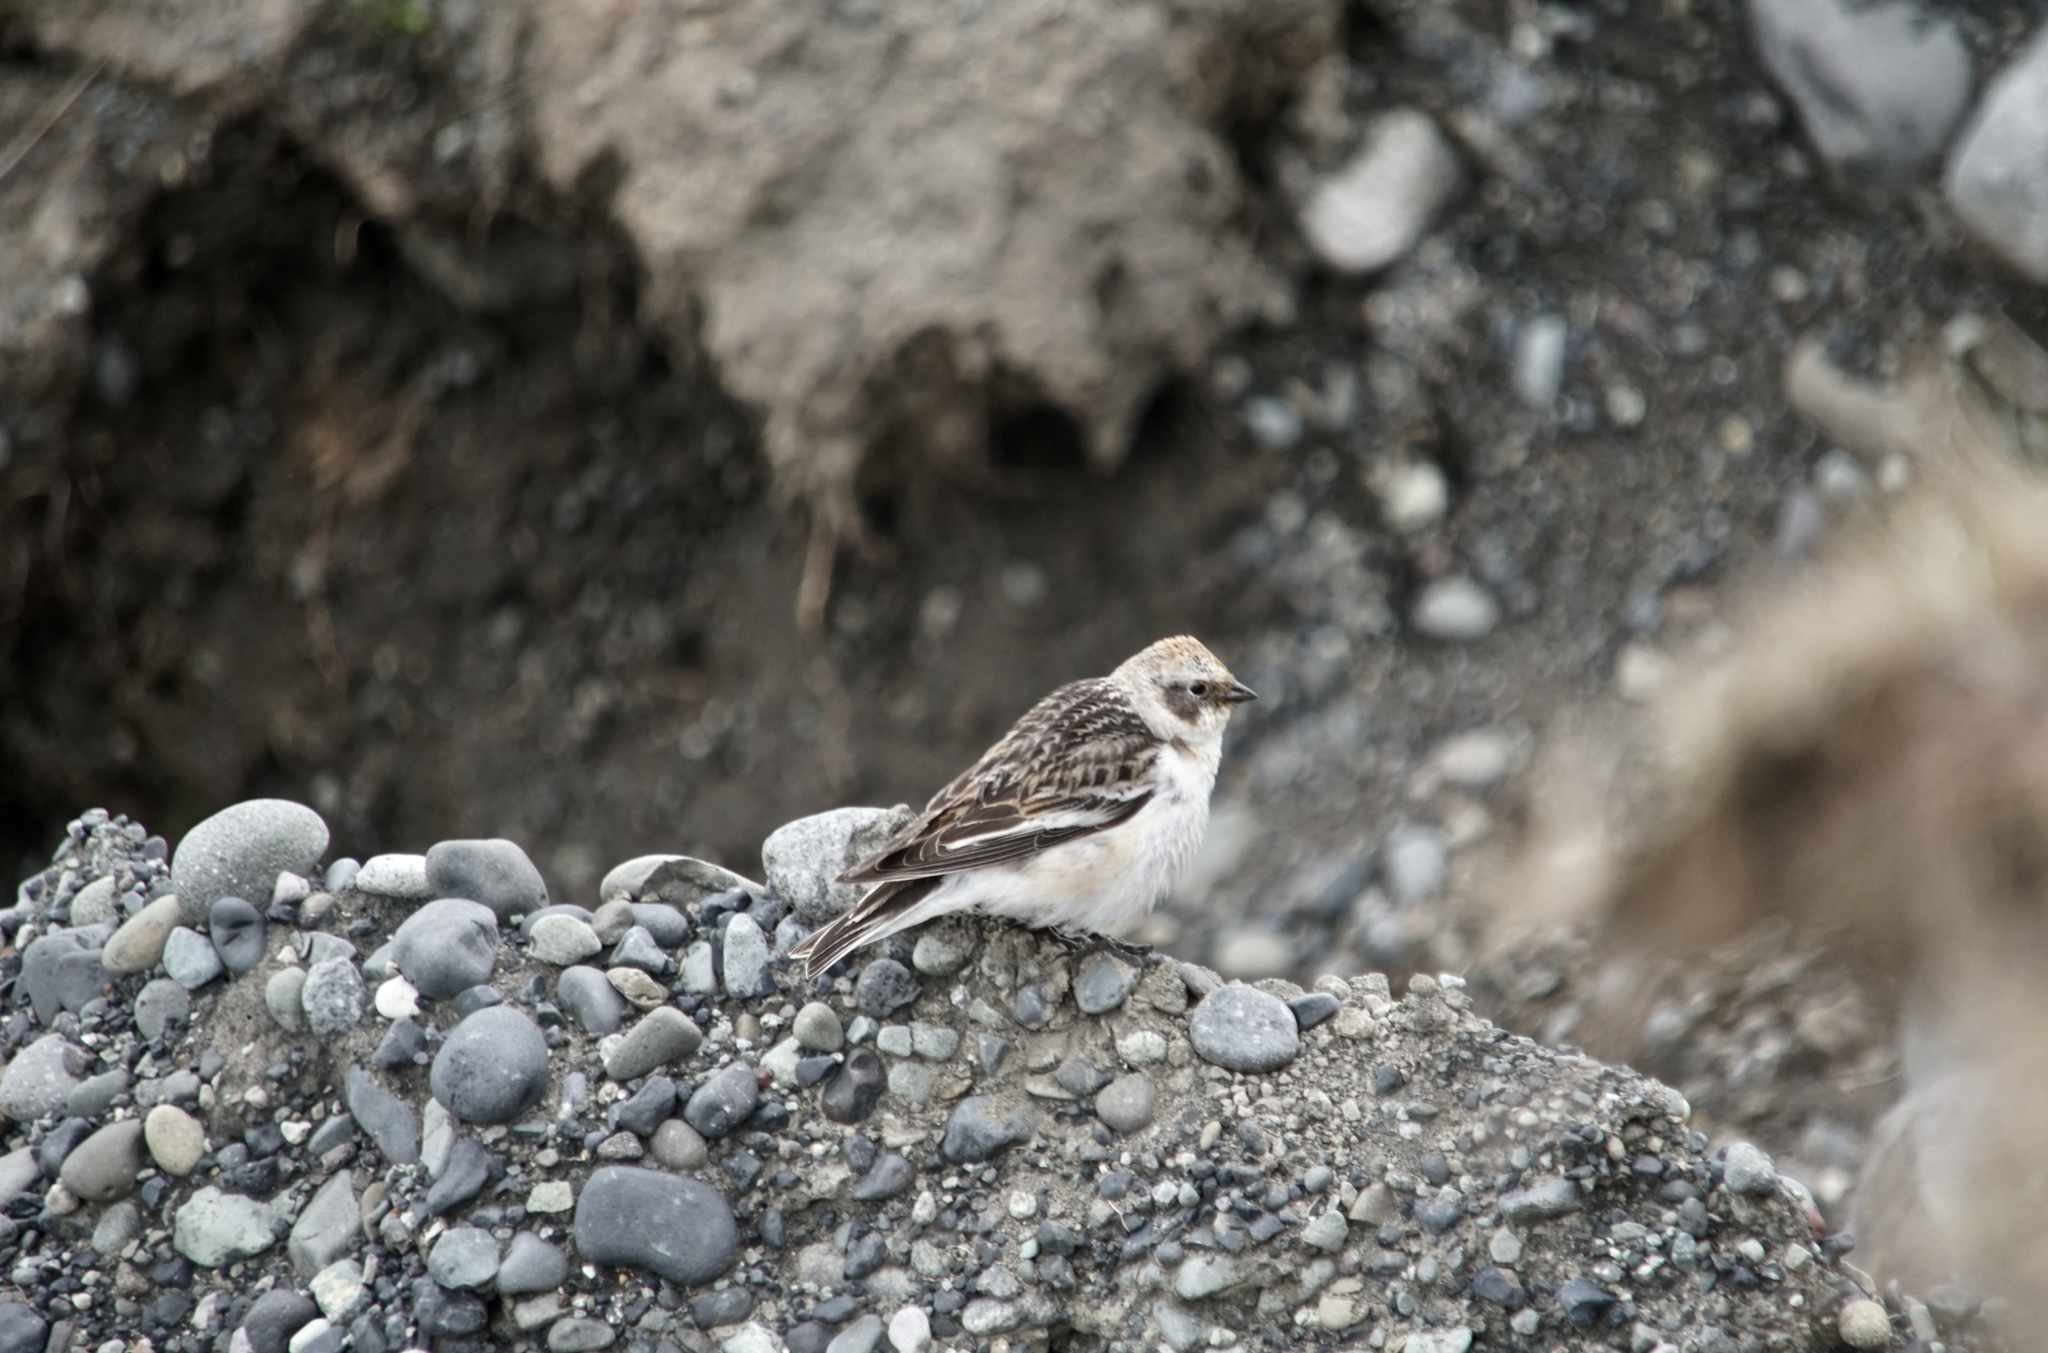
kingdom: Animalia
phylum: Chordata
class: Aves
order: Passeriformes
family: Calcariidae
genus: Plectrophenax
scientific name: Plectrophenax nivalis
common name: Snow bunting
